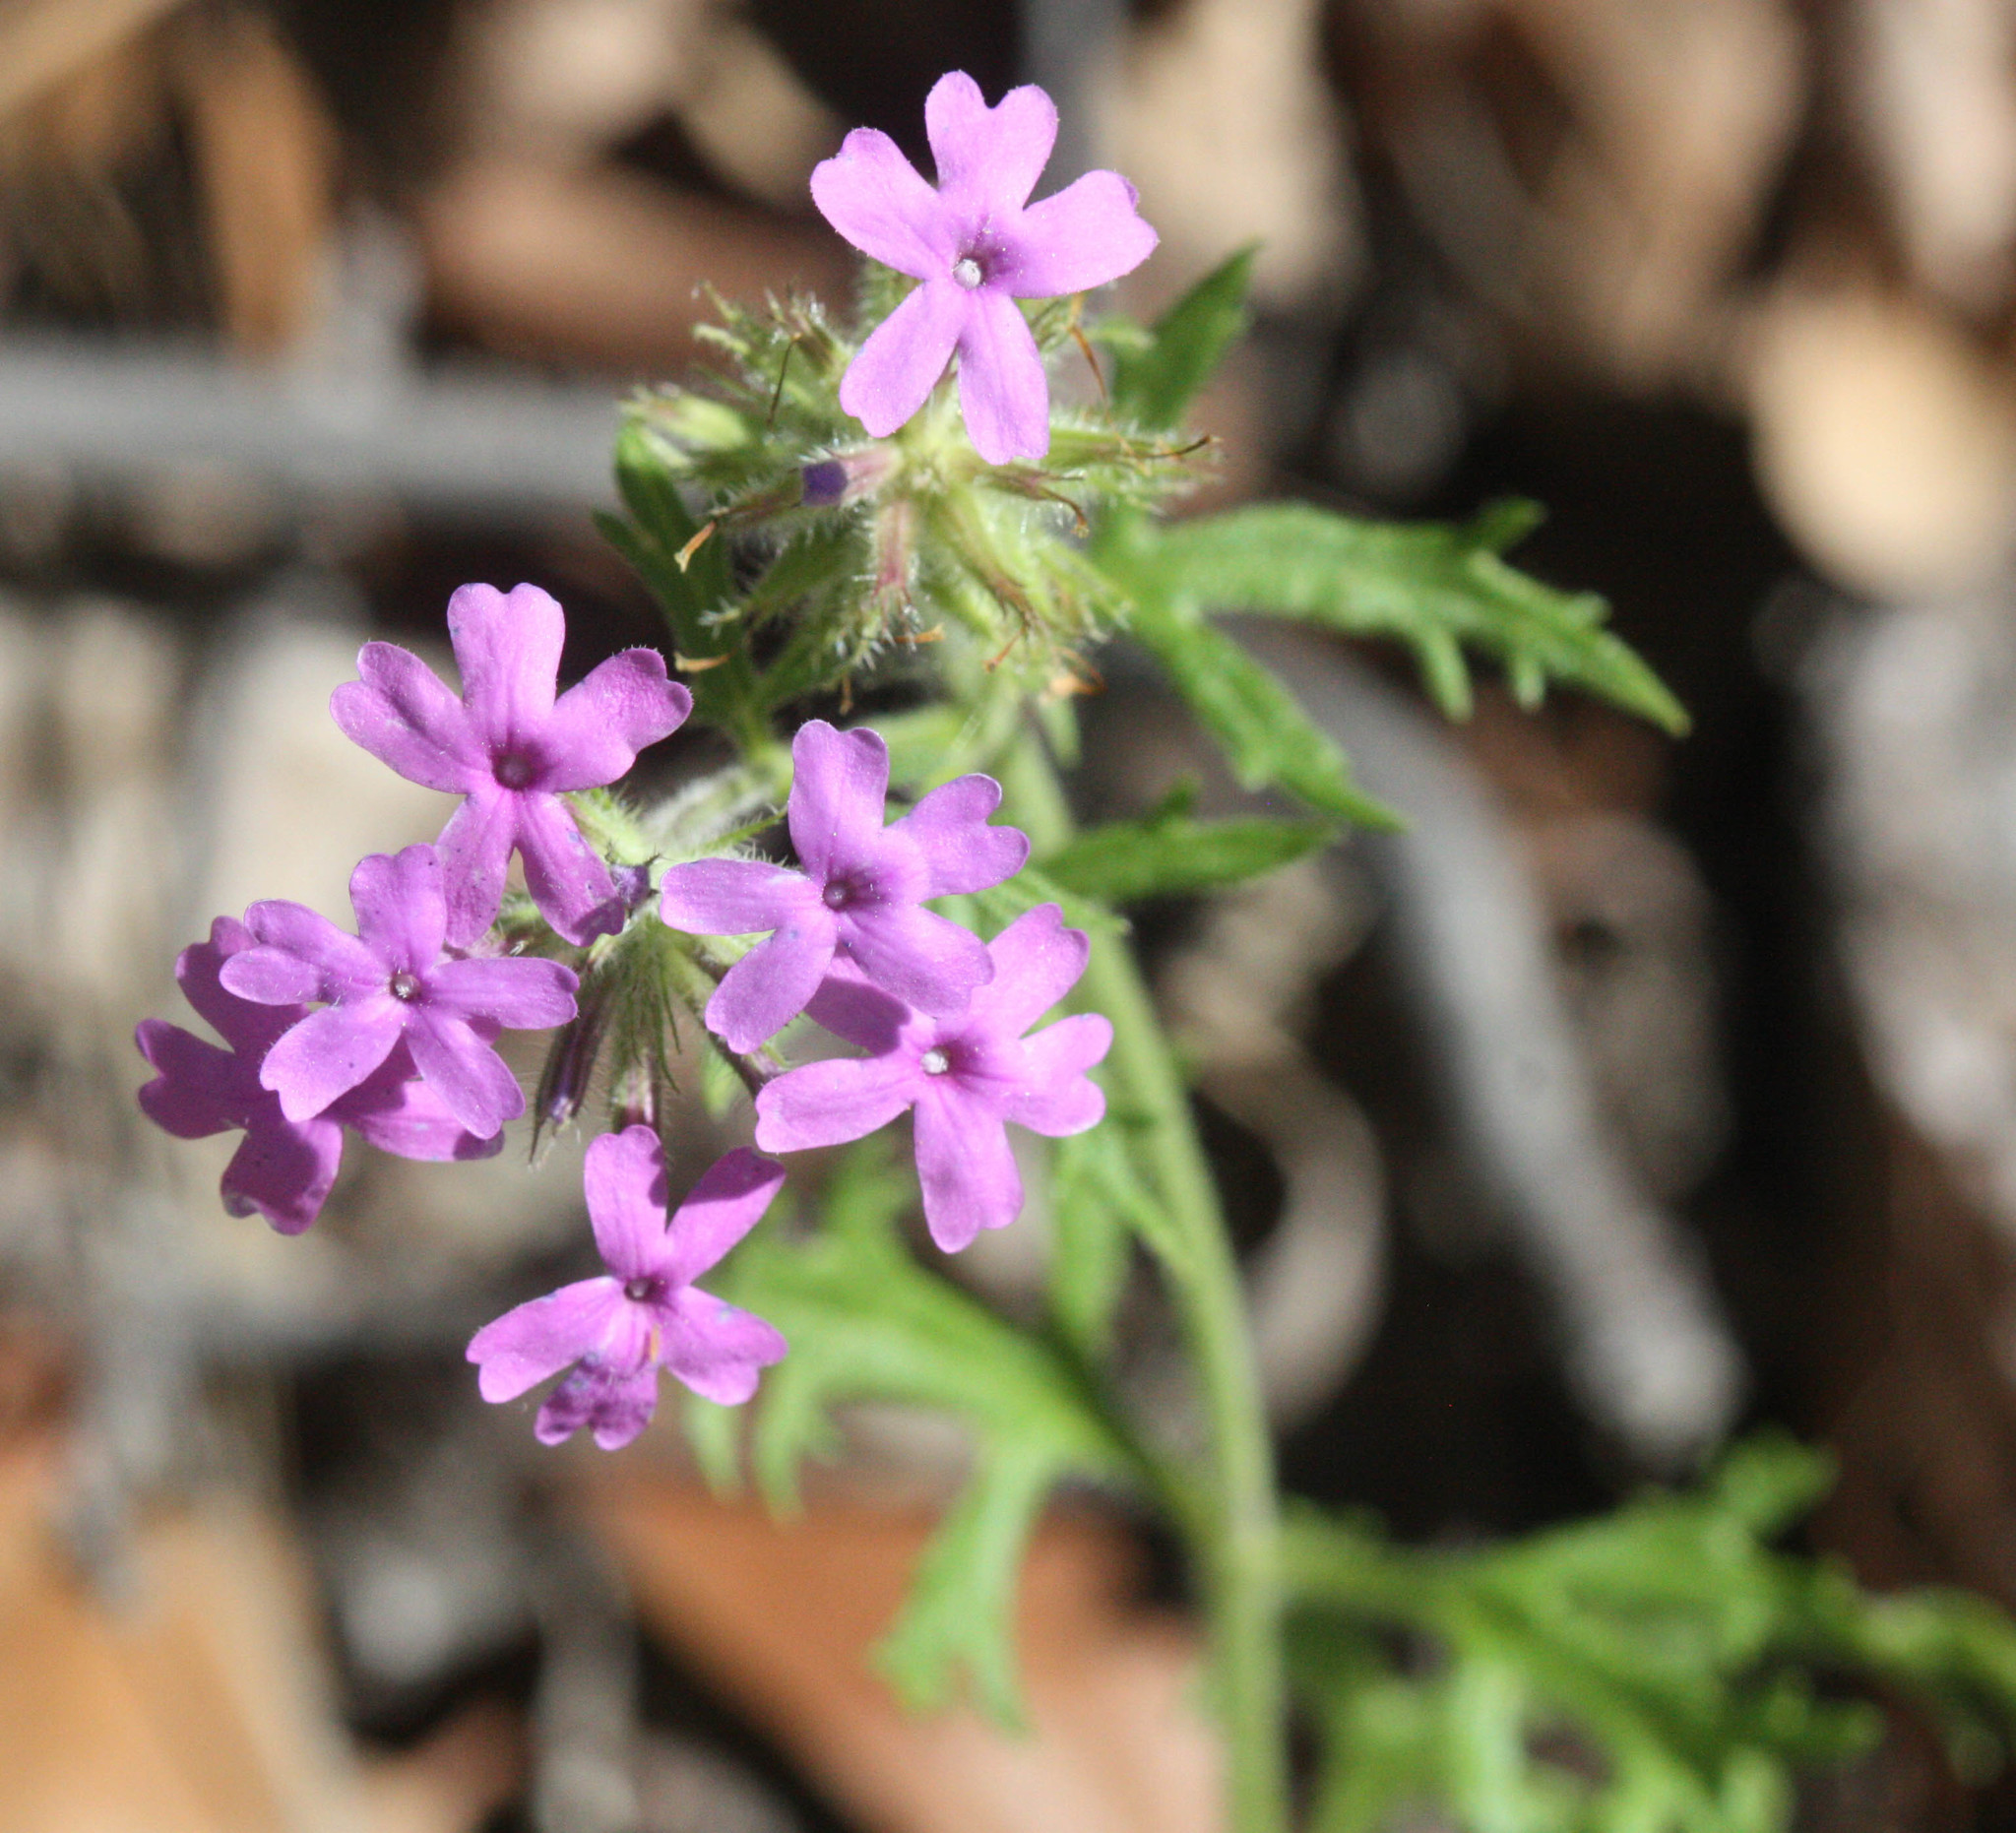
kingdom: Plantae
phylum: Tracheophyta
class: Magnoliopsida
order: Lamiales
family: Verbenaceae
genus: Verbena
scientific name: Verbena chiricahensis
